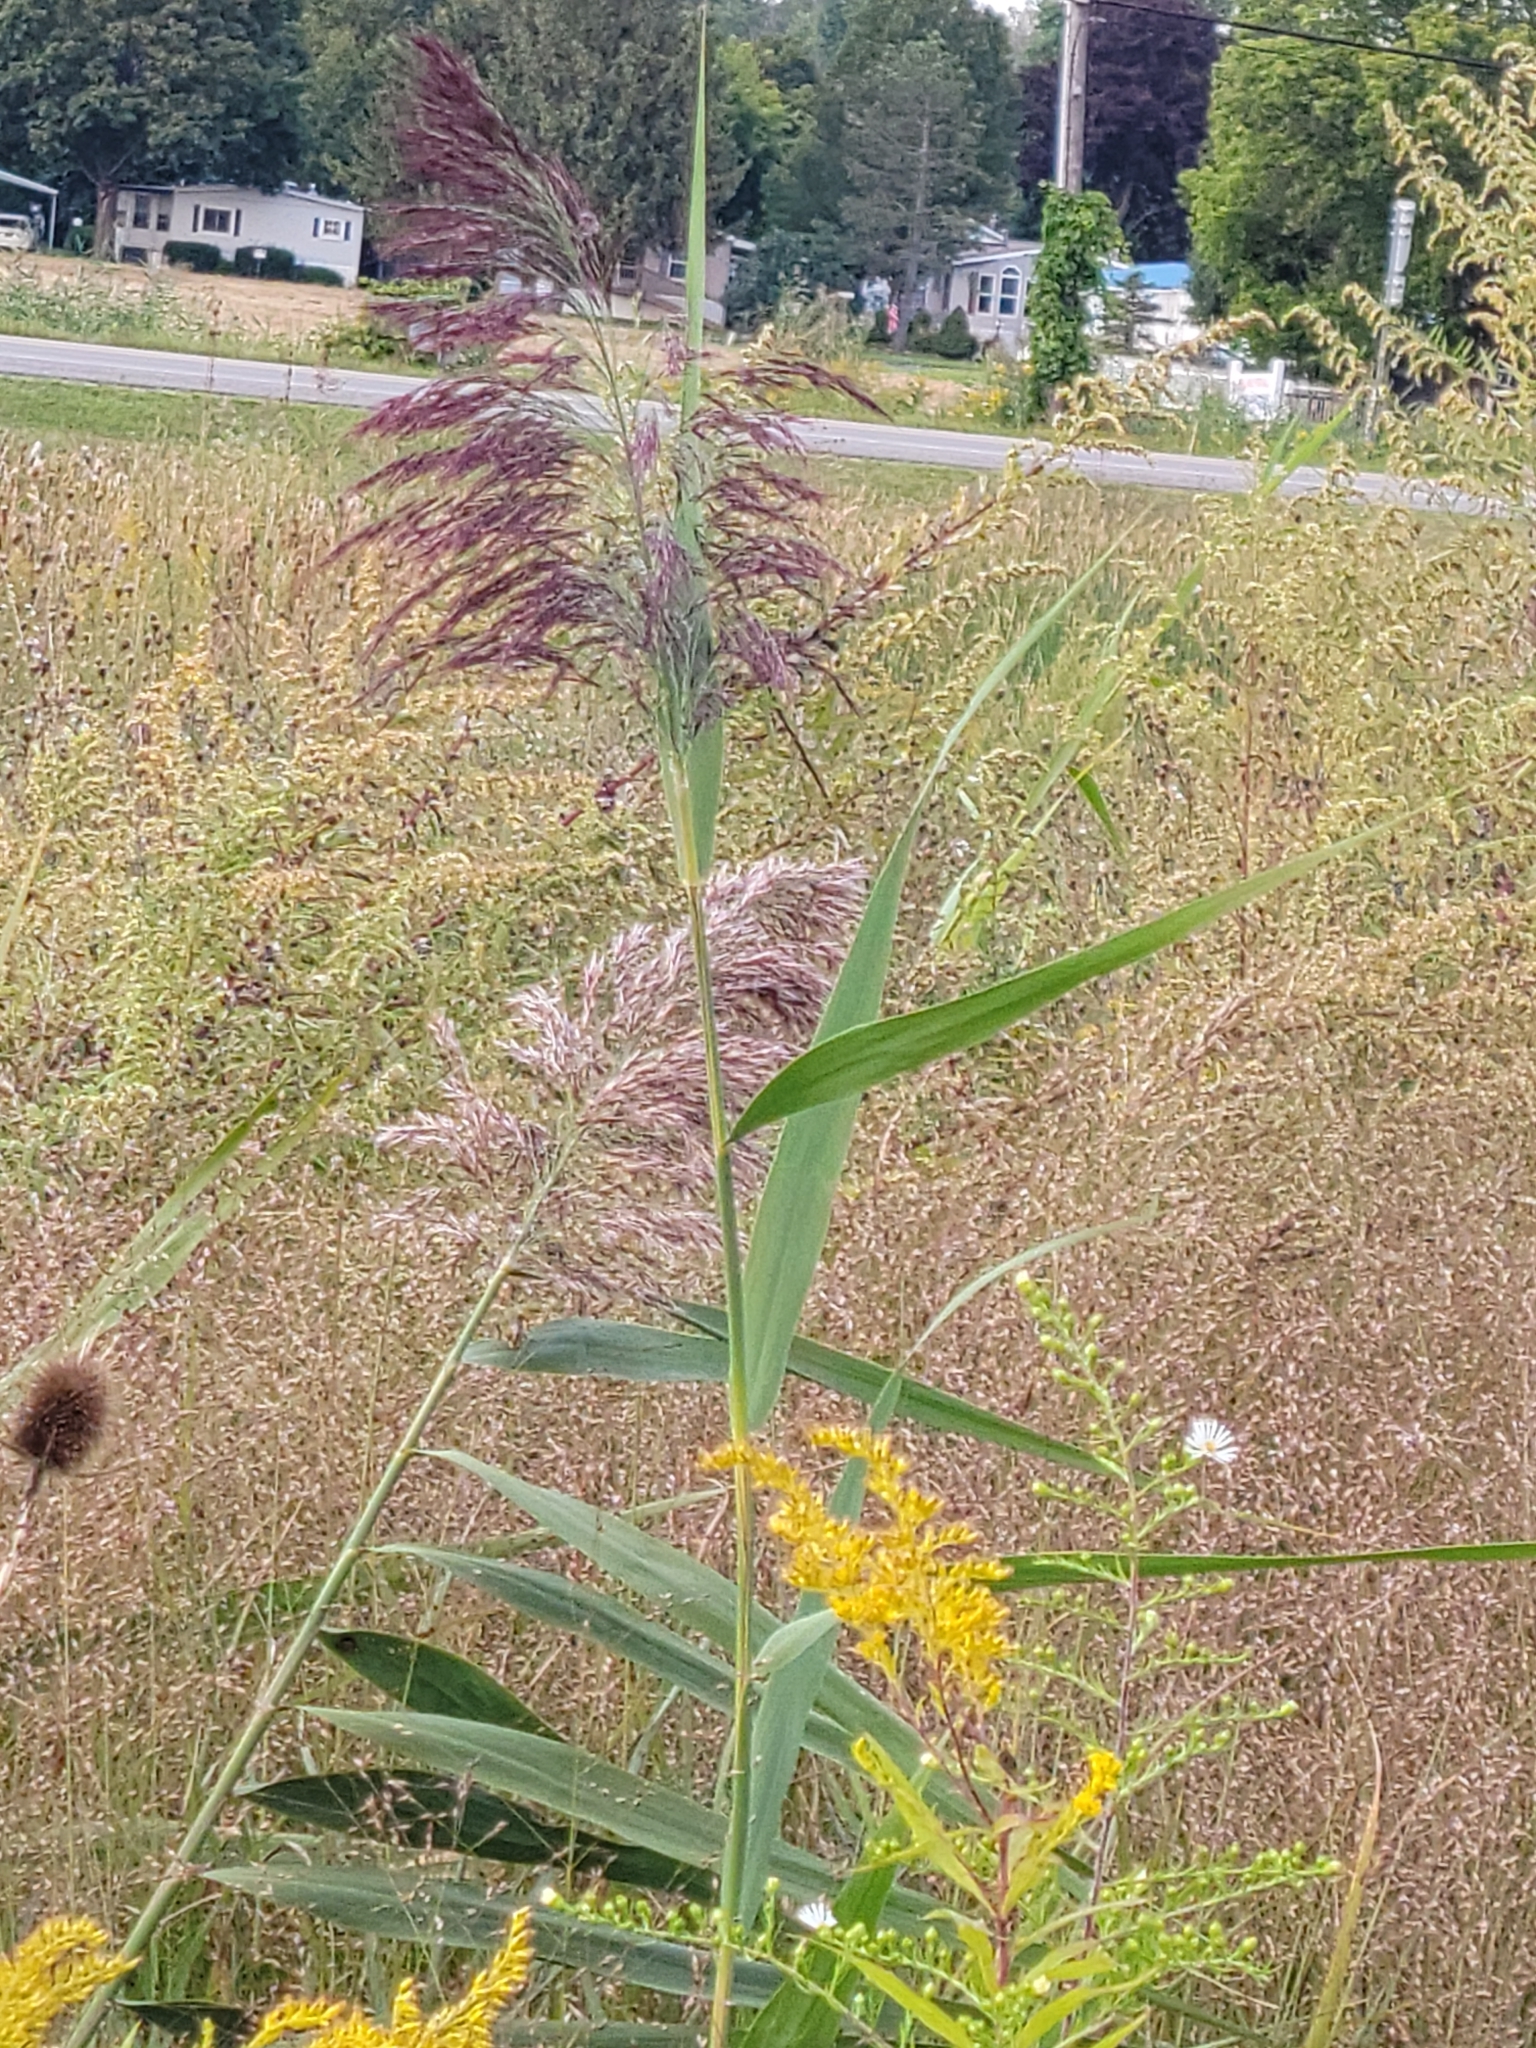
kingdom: Plantae
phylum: Tracheophyta
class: Liliopsida
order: Poales
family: Poaceae
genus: Phragmites
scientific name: Phragmites australis
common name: Common reed
